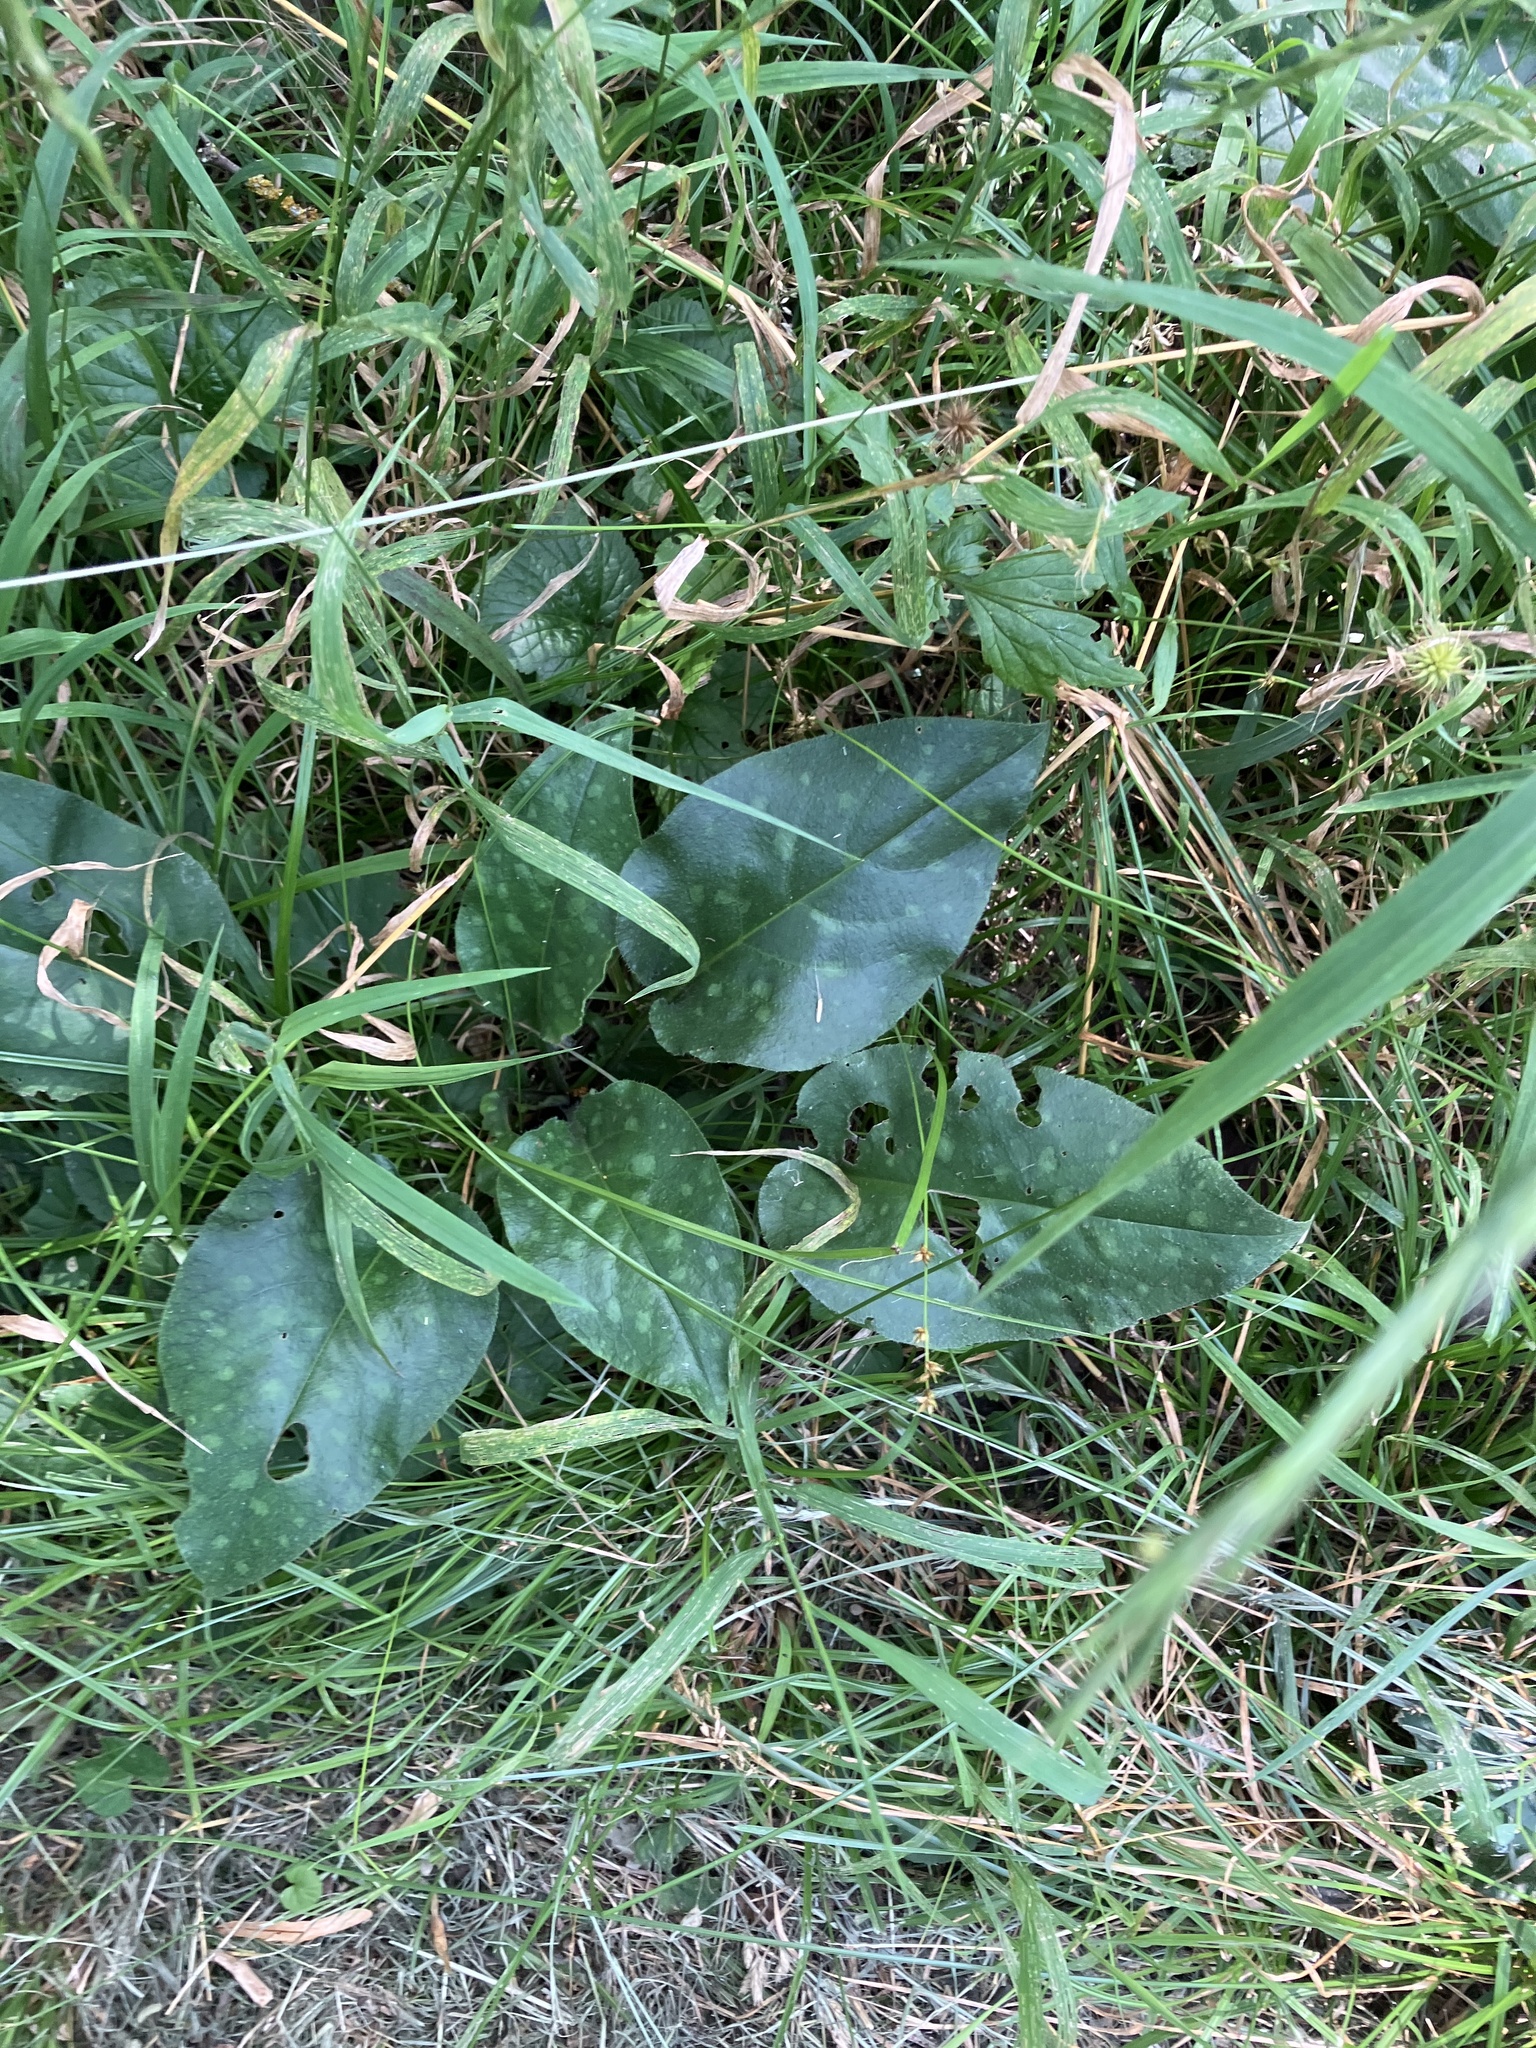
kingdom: Plantae
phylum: Tracheophyta
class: Magnoliopsida
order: Boraginales
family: Boraginaceae
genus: Pulmonaria
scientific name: Pulmonaria officinalis
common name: Lungwort
